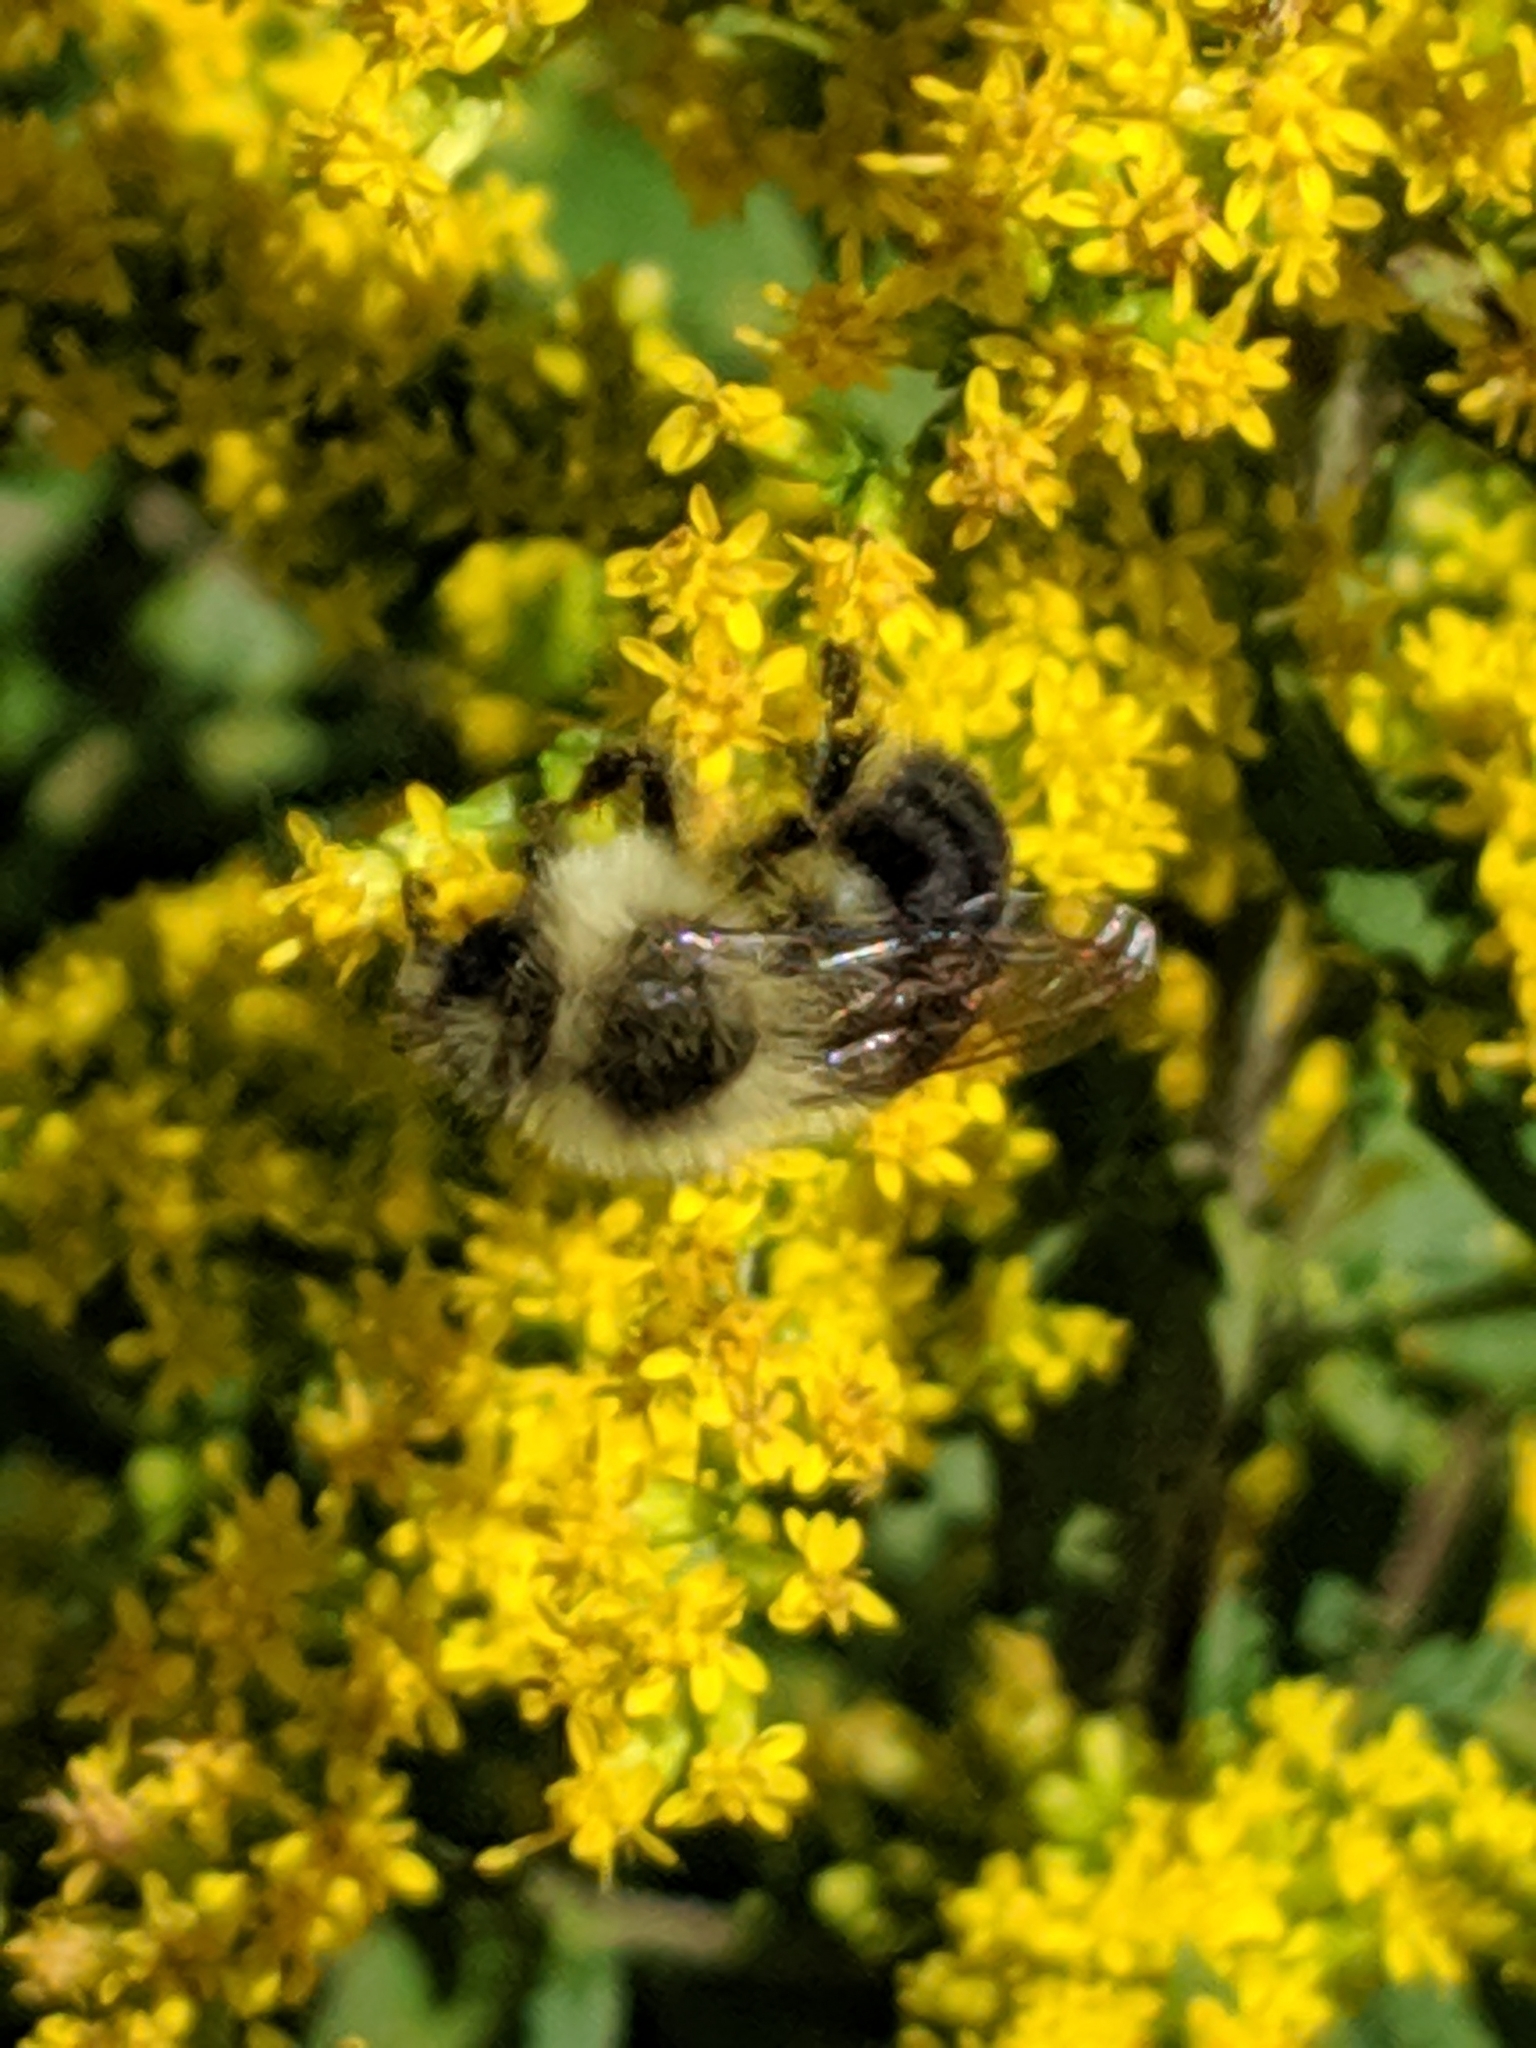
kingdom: Animalia
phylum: Arthropoda
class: Insecta
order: Hymenoptera
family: Apidae
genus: Bombus
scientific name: Bombus impatiens
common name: Common eastern bumble bee
